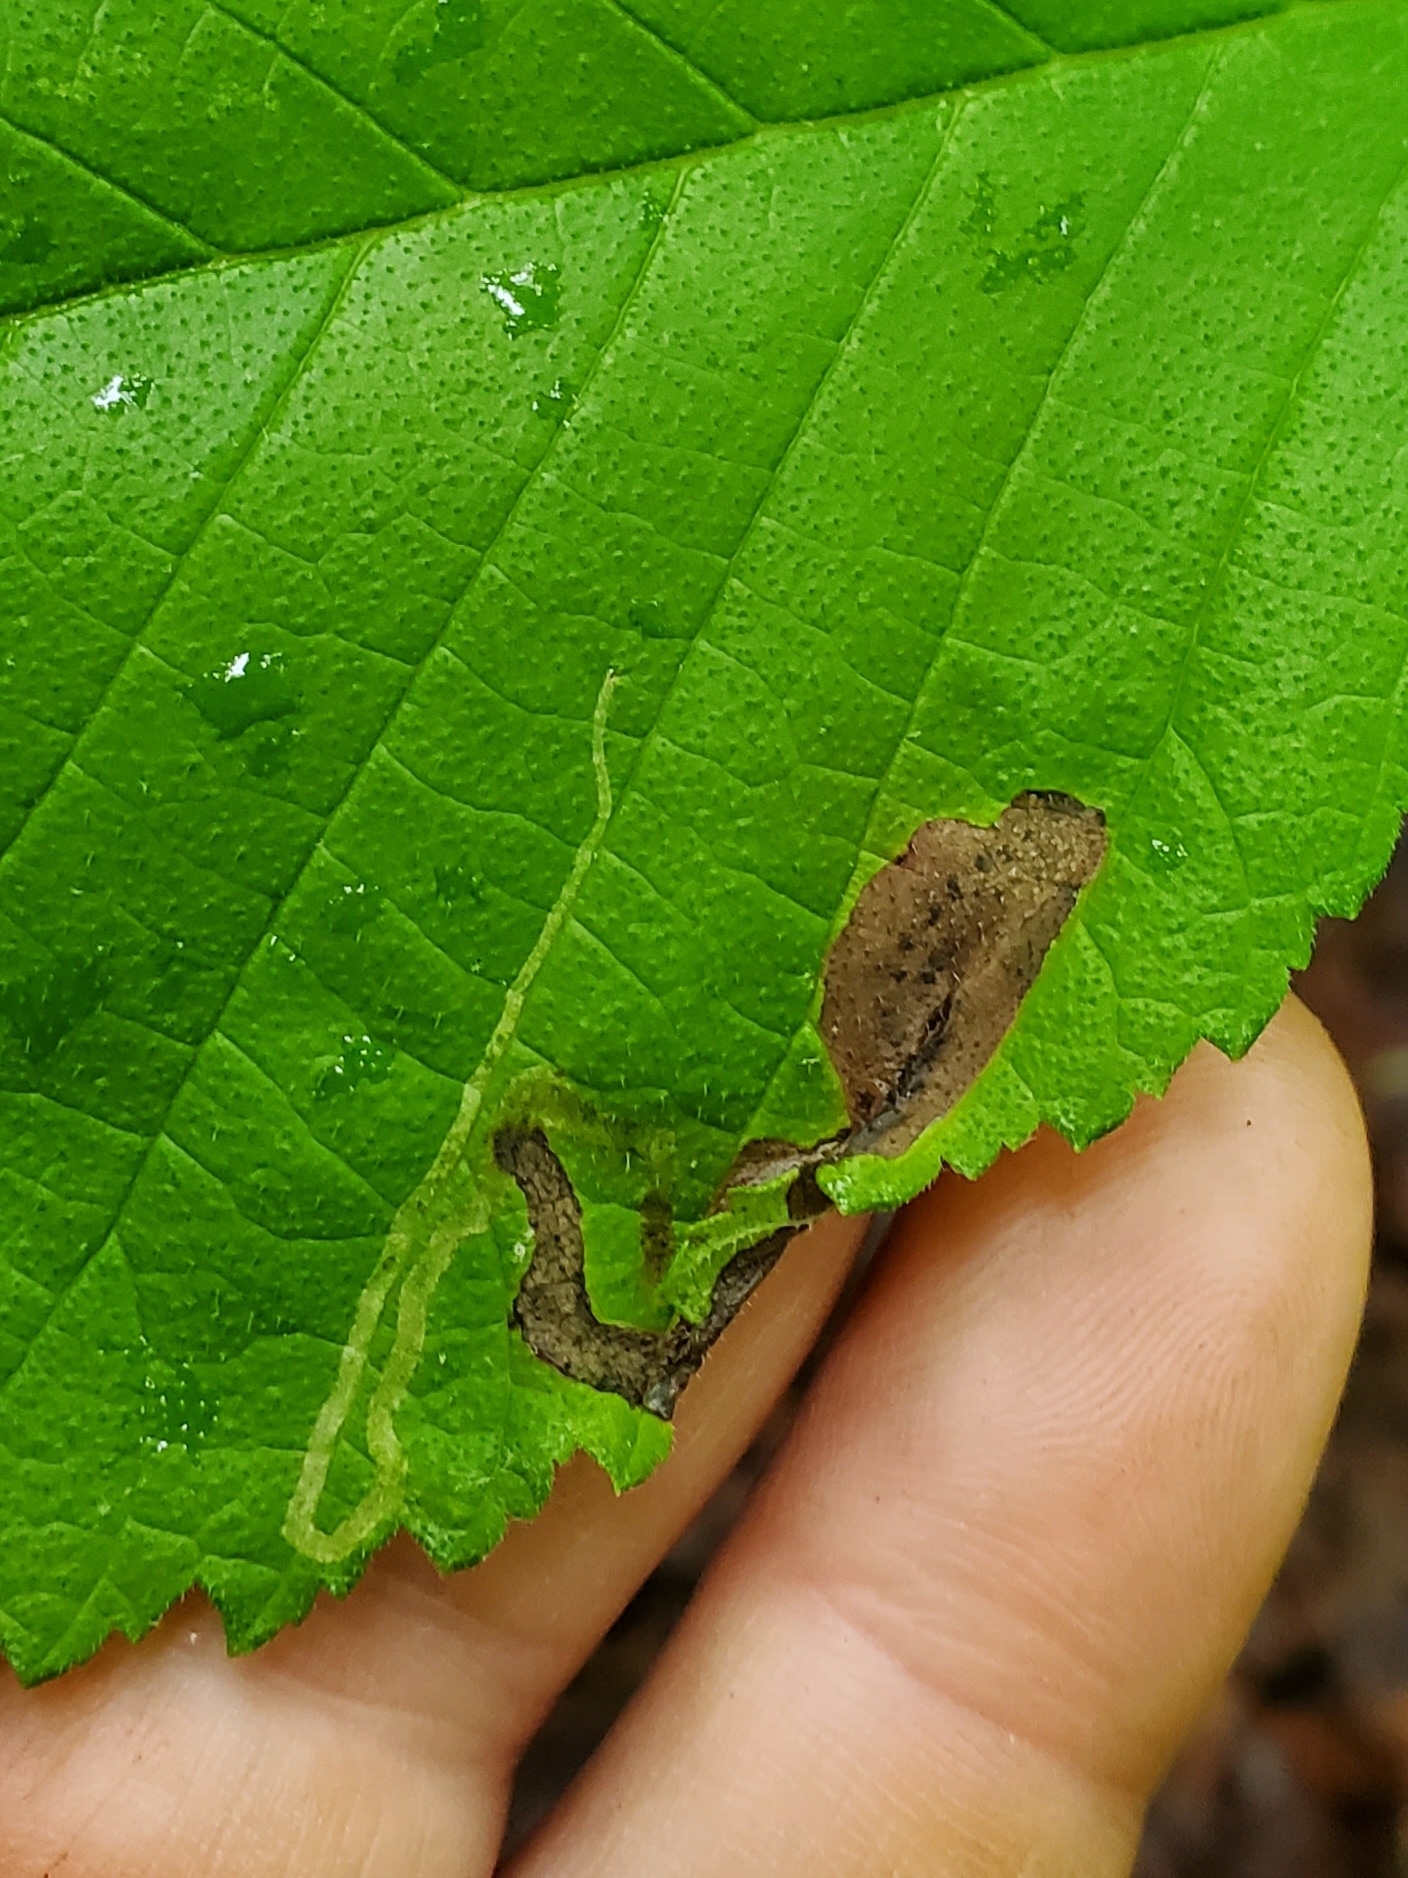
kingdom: Animalia
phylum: Arthropoda
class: Insecta
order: Diptera
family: Agromyzidae
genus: Agromyza
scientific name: Agromyza aristata
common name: Elm agromyzid leafminer
